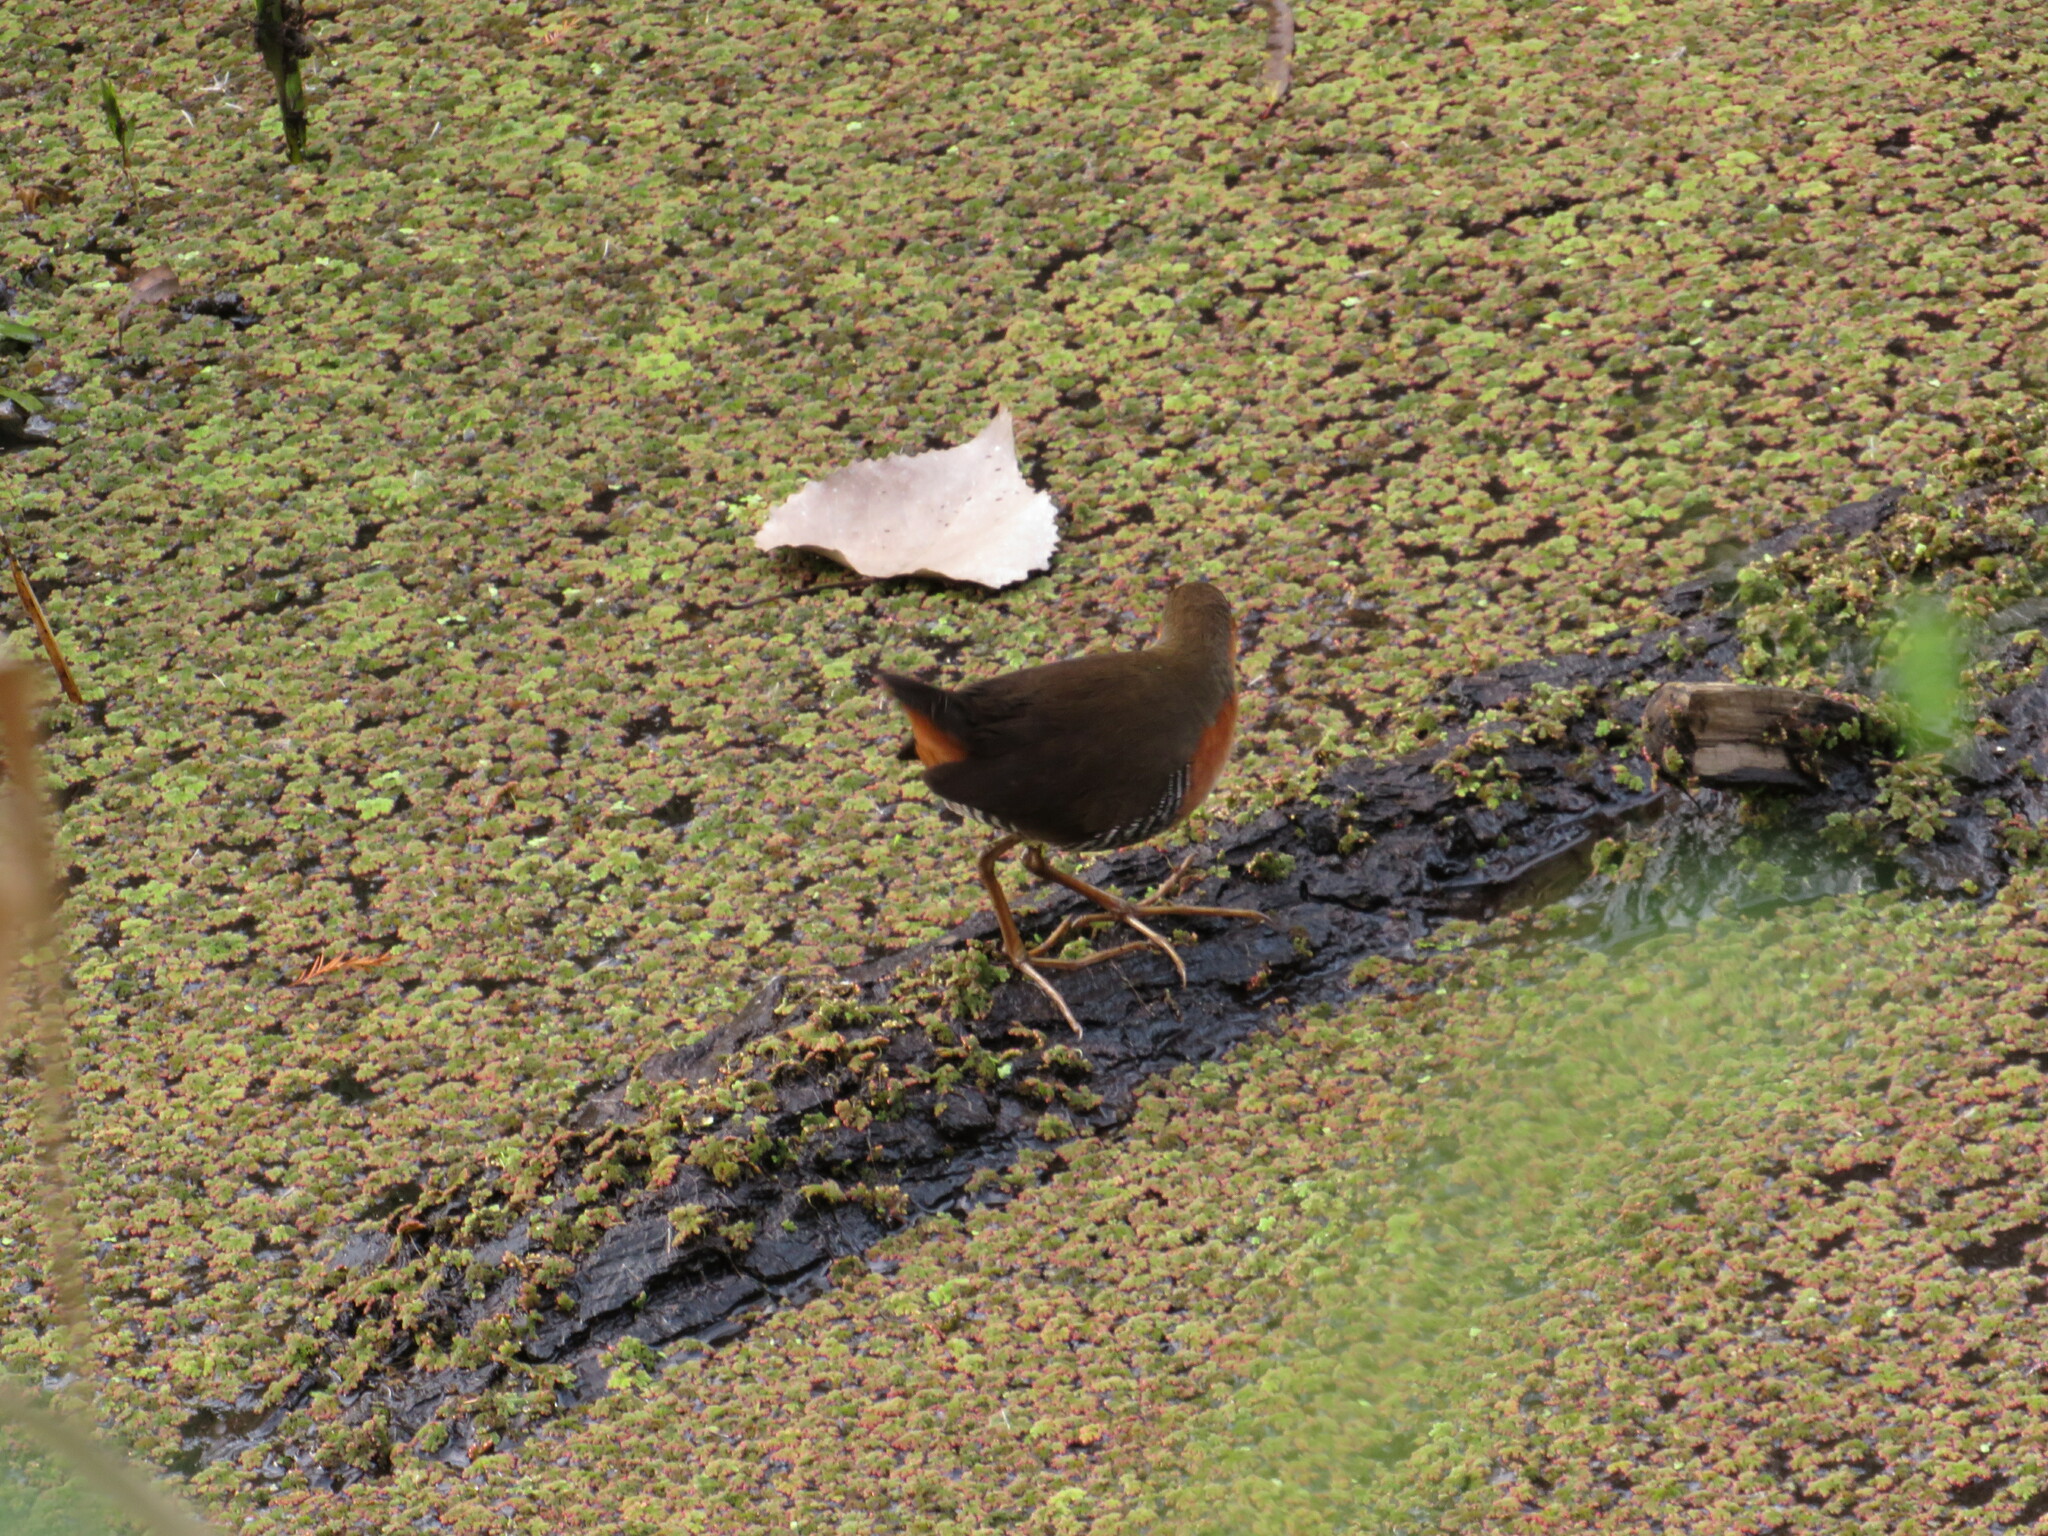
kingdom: Animalia
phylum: Chordata
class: Aves
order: Gruiformes
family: Rallidae
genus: Laterallus
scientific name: Laterallus melanophaius
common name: Rufous-sided crake
